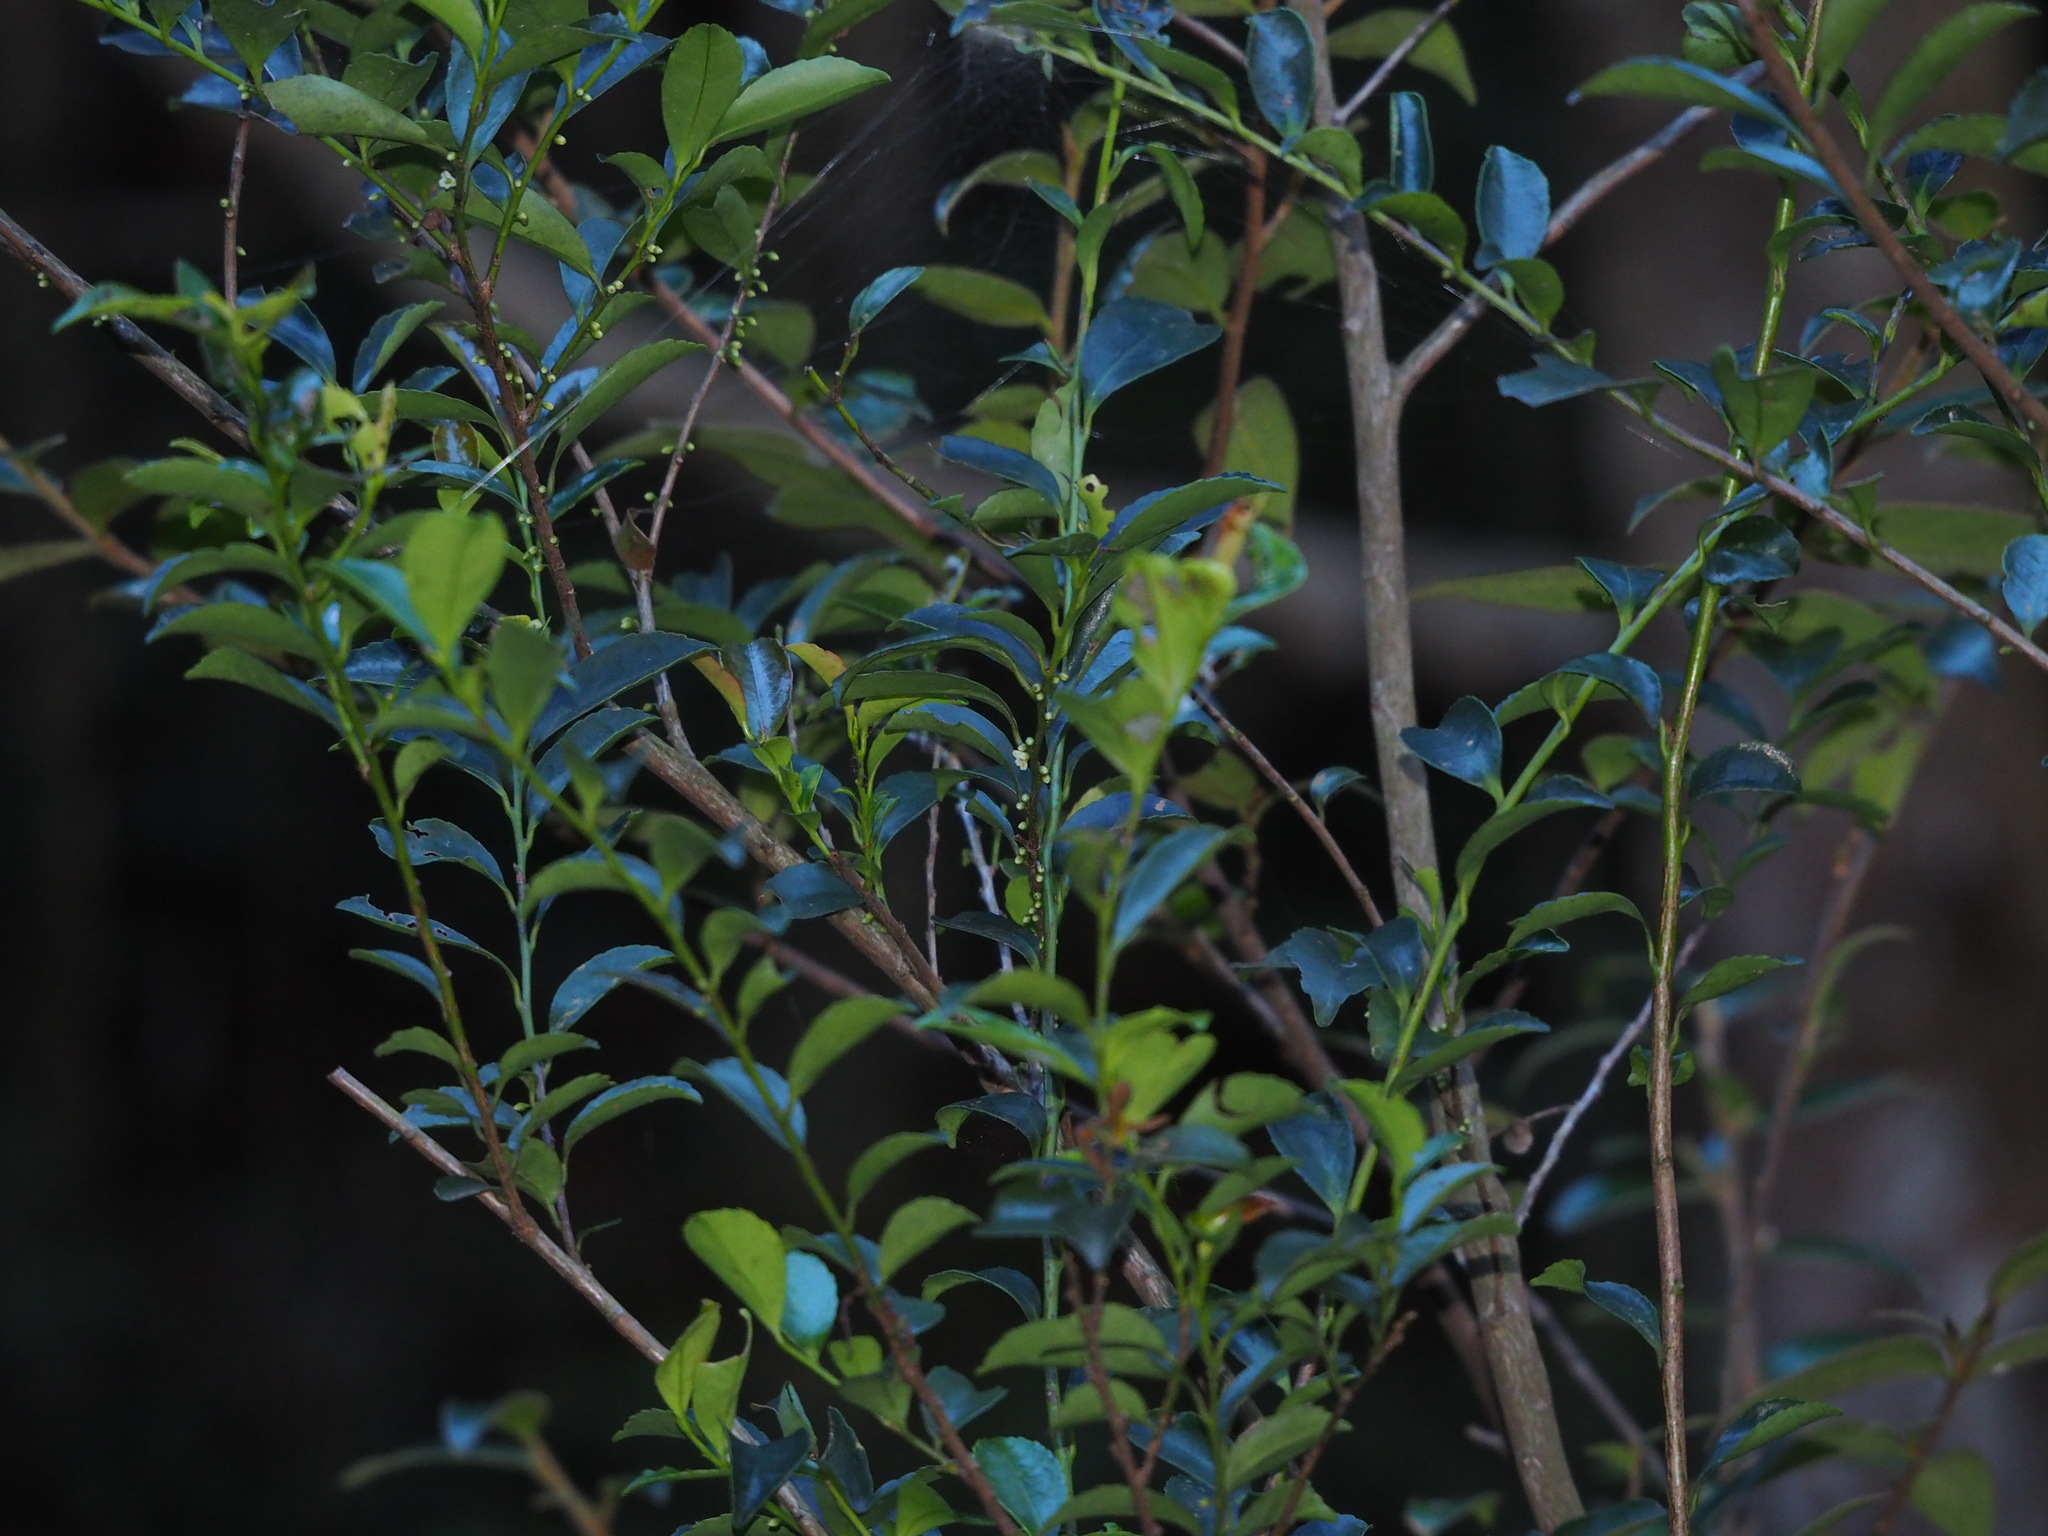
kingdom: Plantae
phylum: Tracheophyta
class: Magnoliopsida
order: Ericales
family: Pentaphylacaceae
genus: Eurya
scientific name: Eurya nitida
